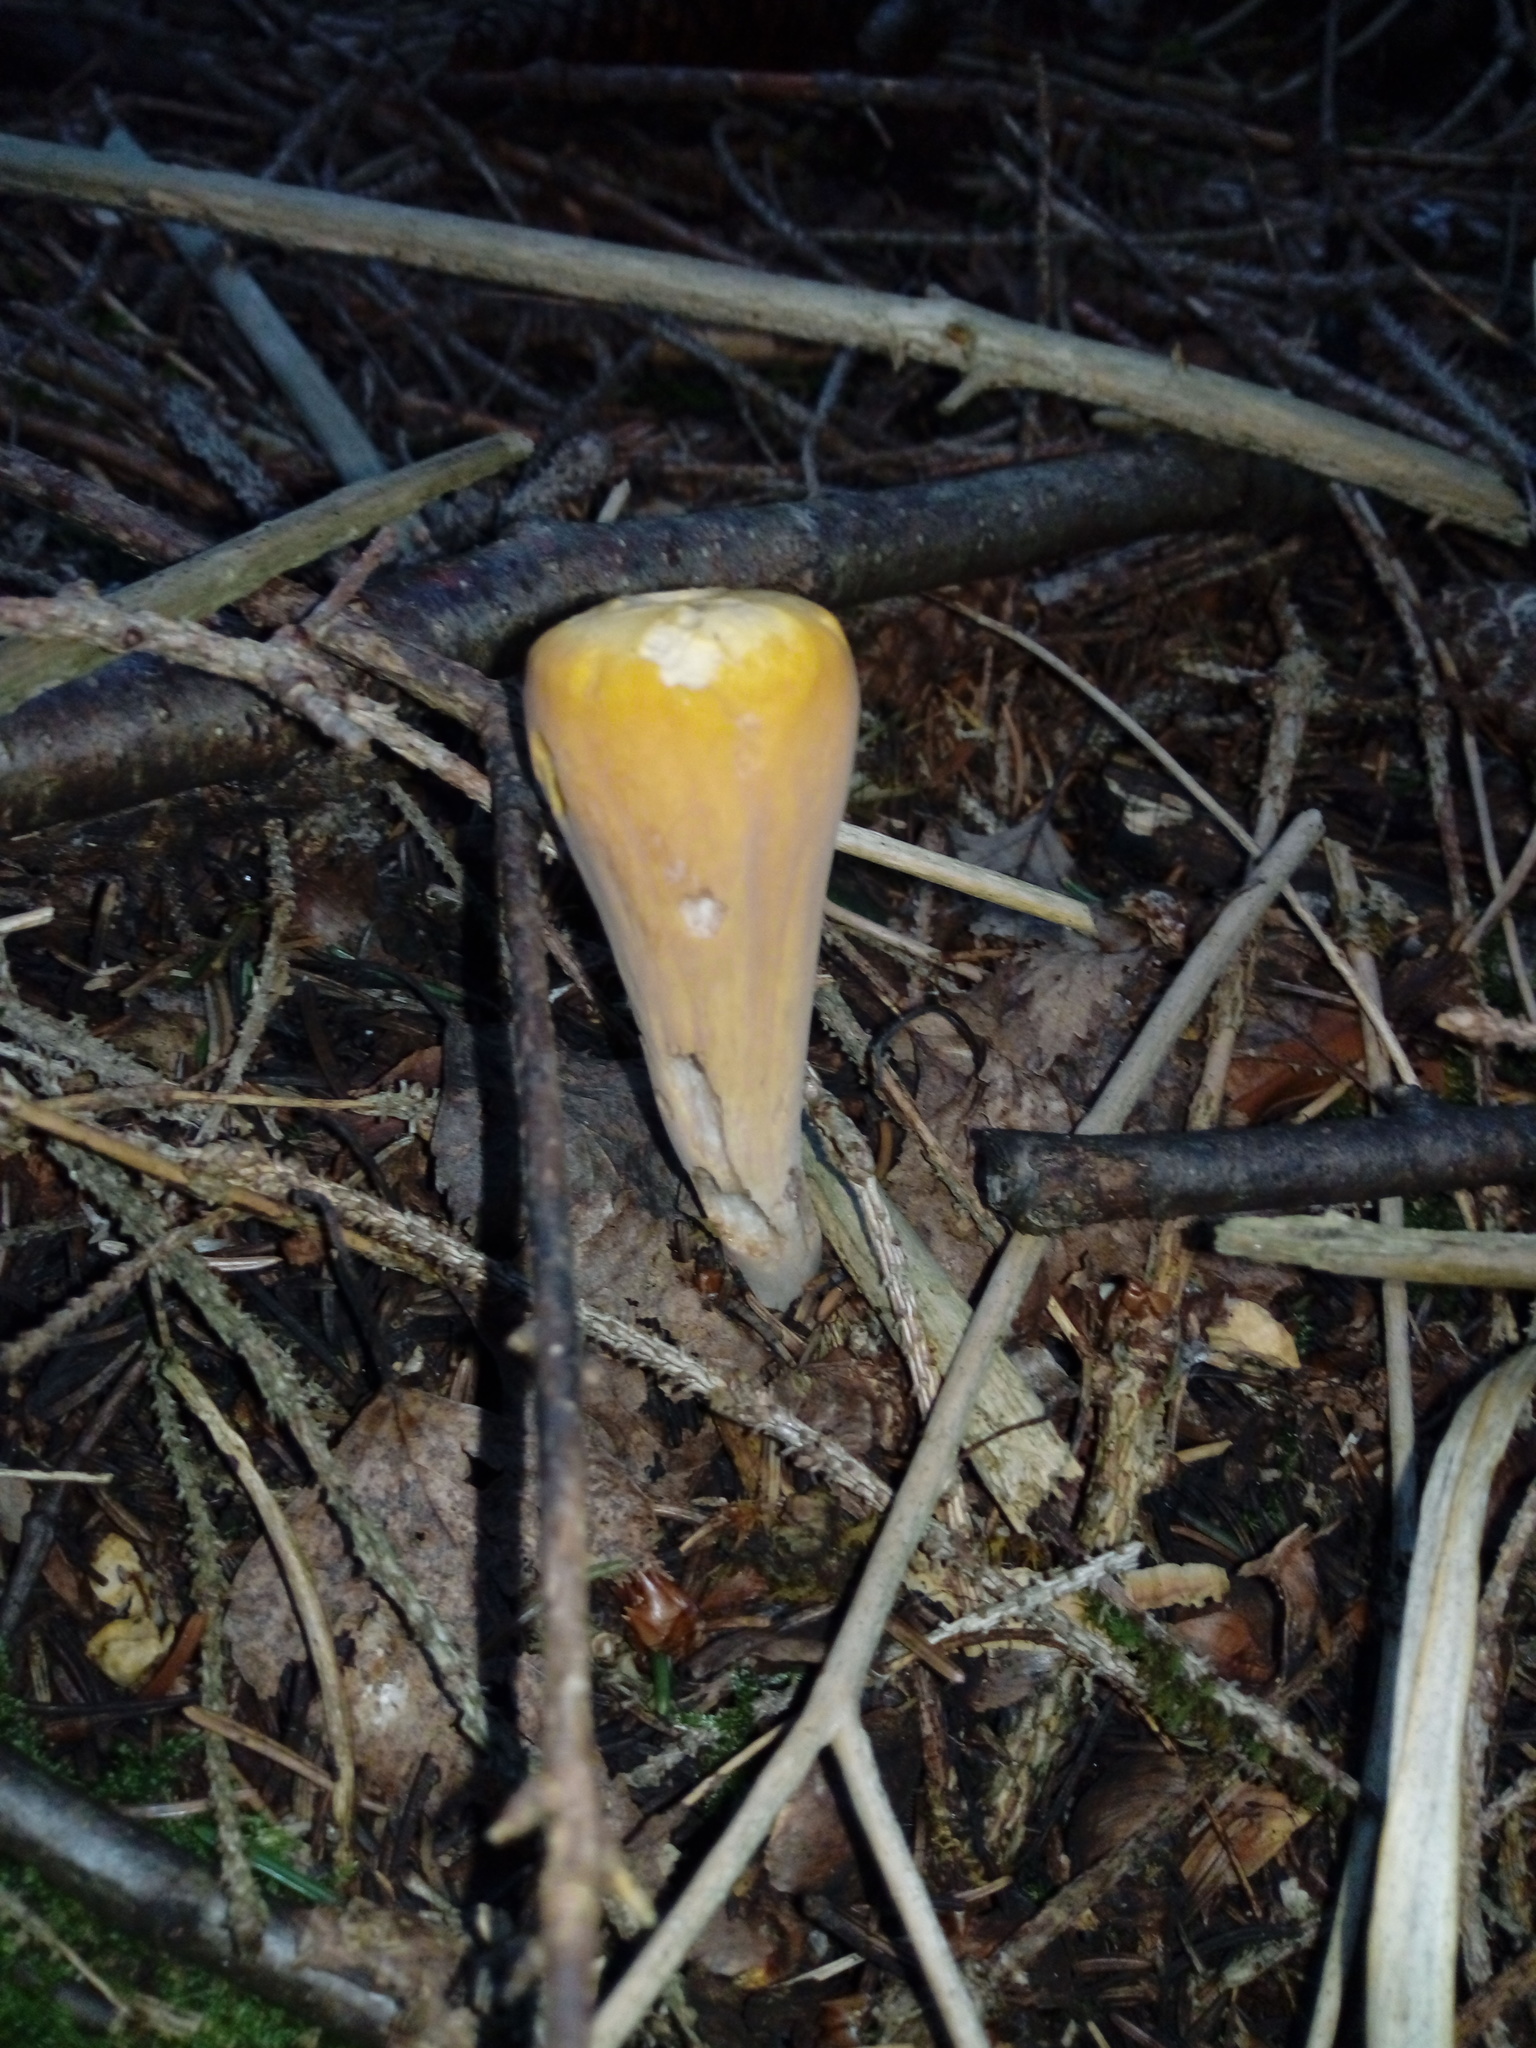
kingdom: Fungi
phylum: Basidiomycota
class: Agaricomycetes
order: Gomphales
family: Clavariadelphaceae
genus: Clavariadelphus
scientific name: Clavariadelphus truncatus
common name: Truncated club
